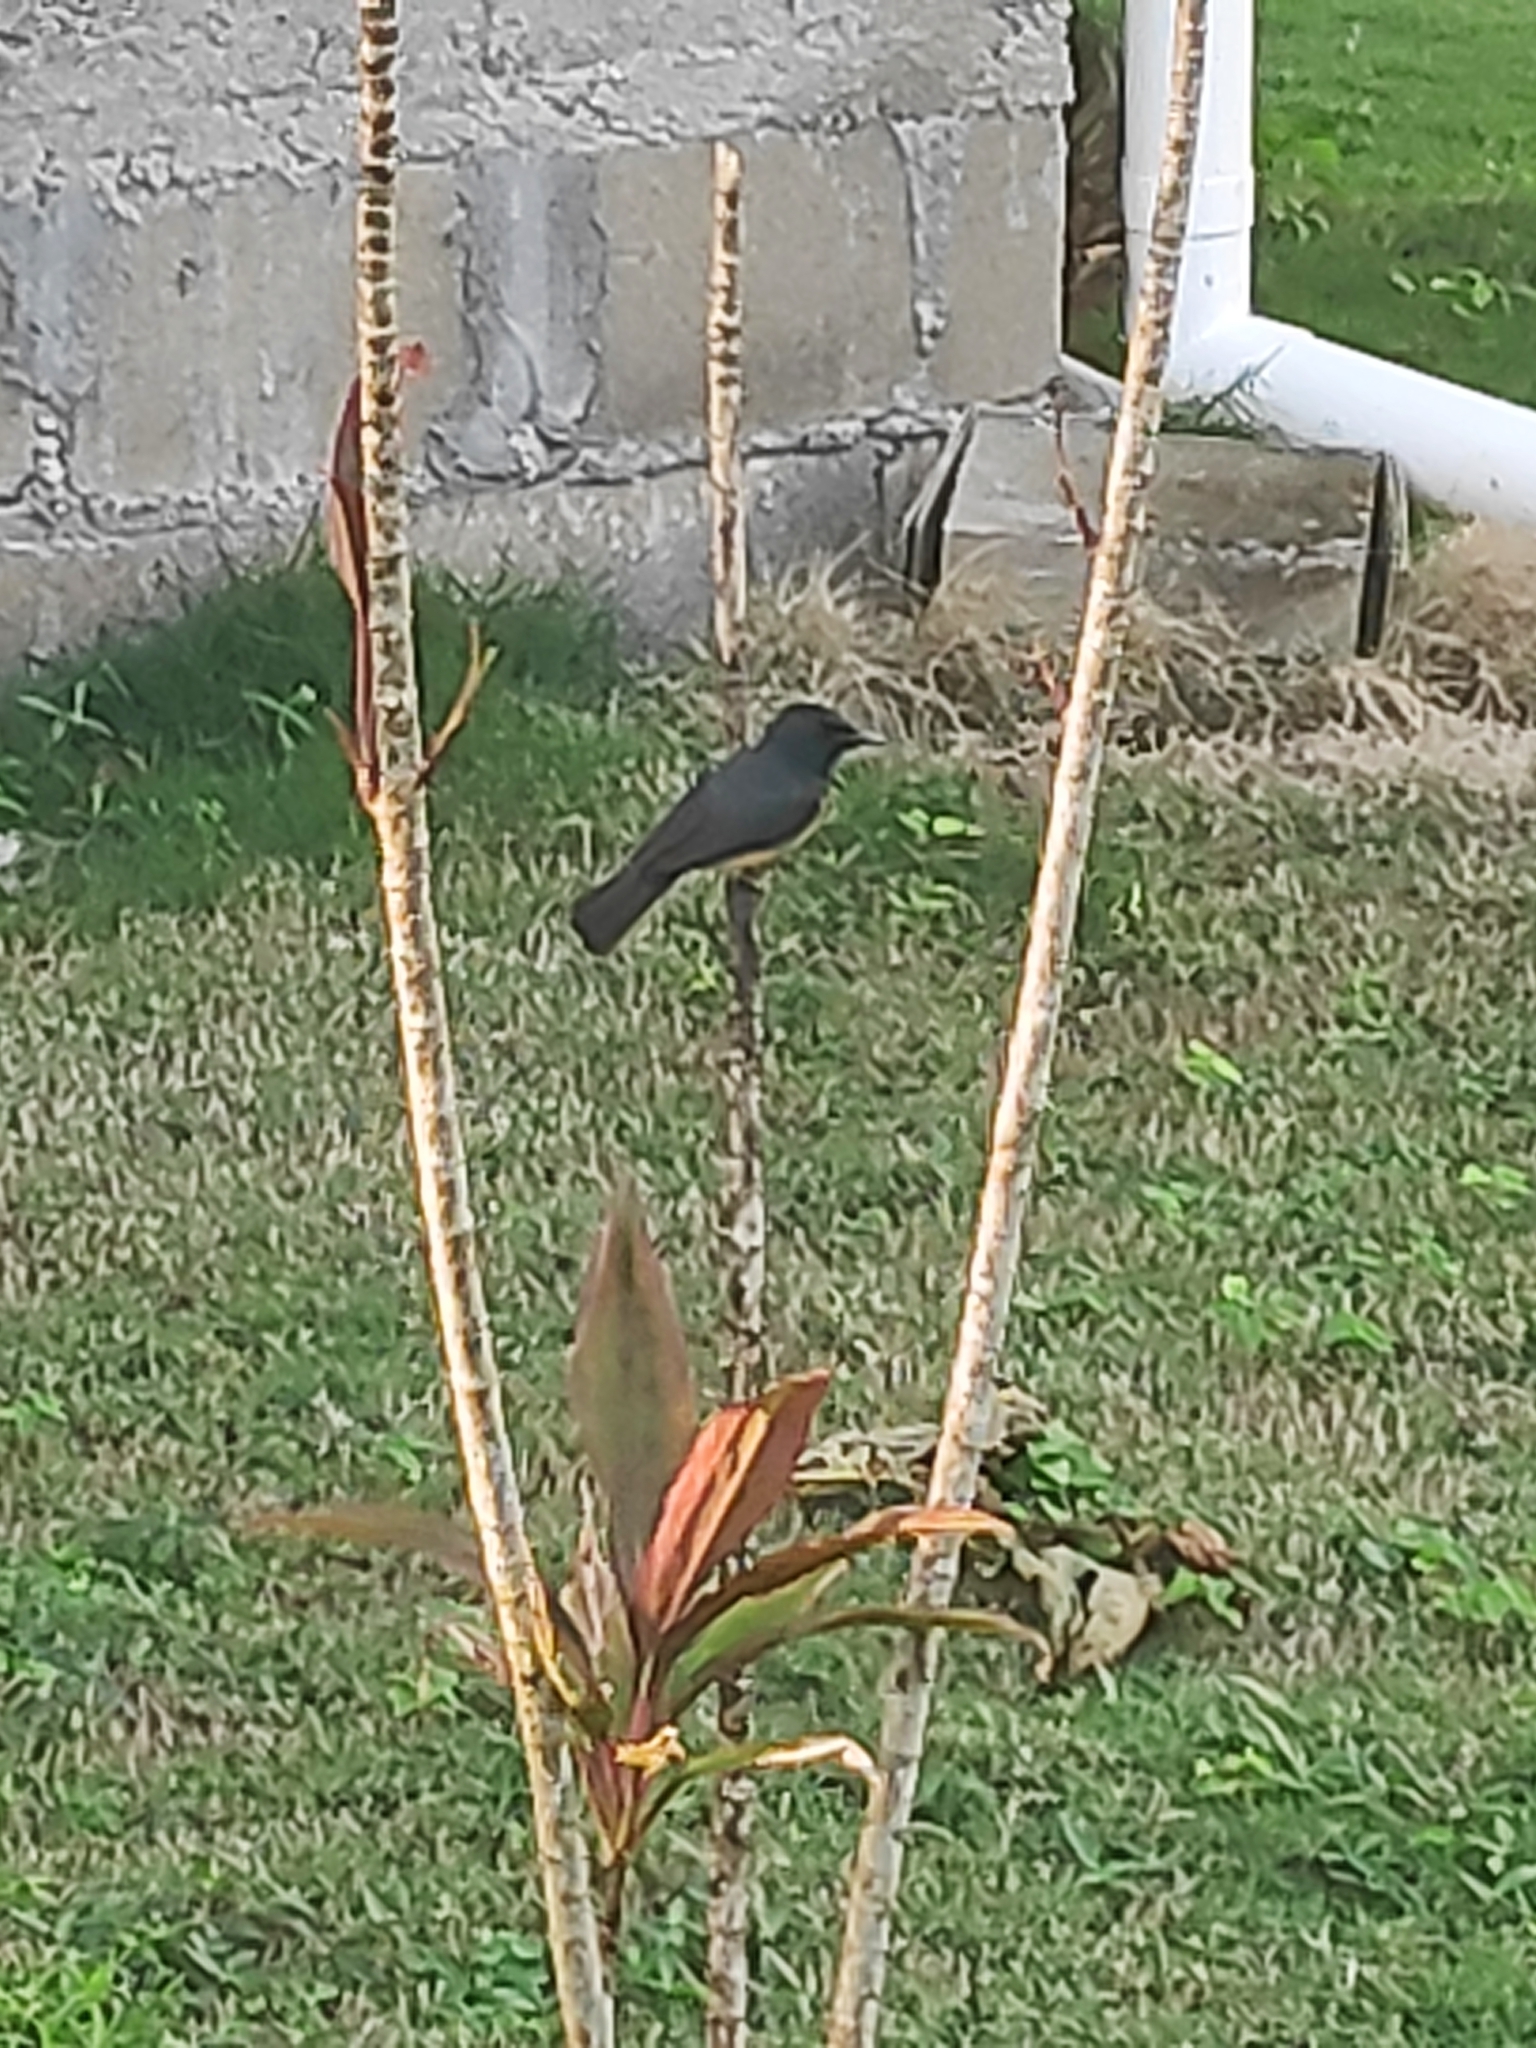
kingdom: Animalia
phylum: Chordata
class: Aves
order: Passeriformes
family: Monarchidae
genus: Myiagra
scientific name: Myiagra vanikorensis
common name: Vanikoro flycatcher
